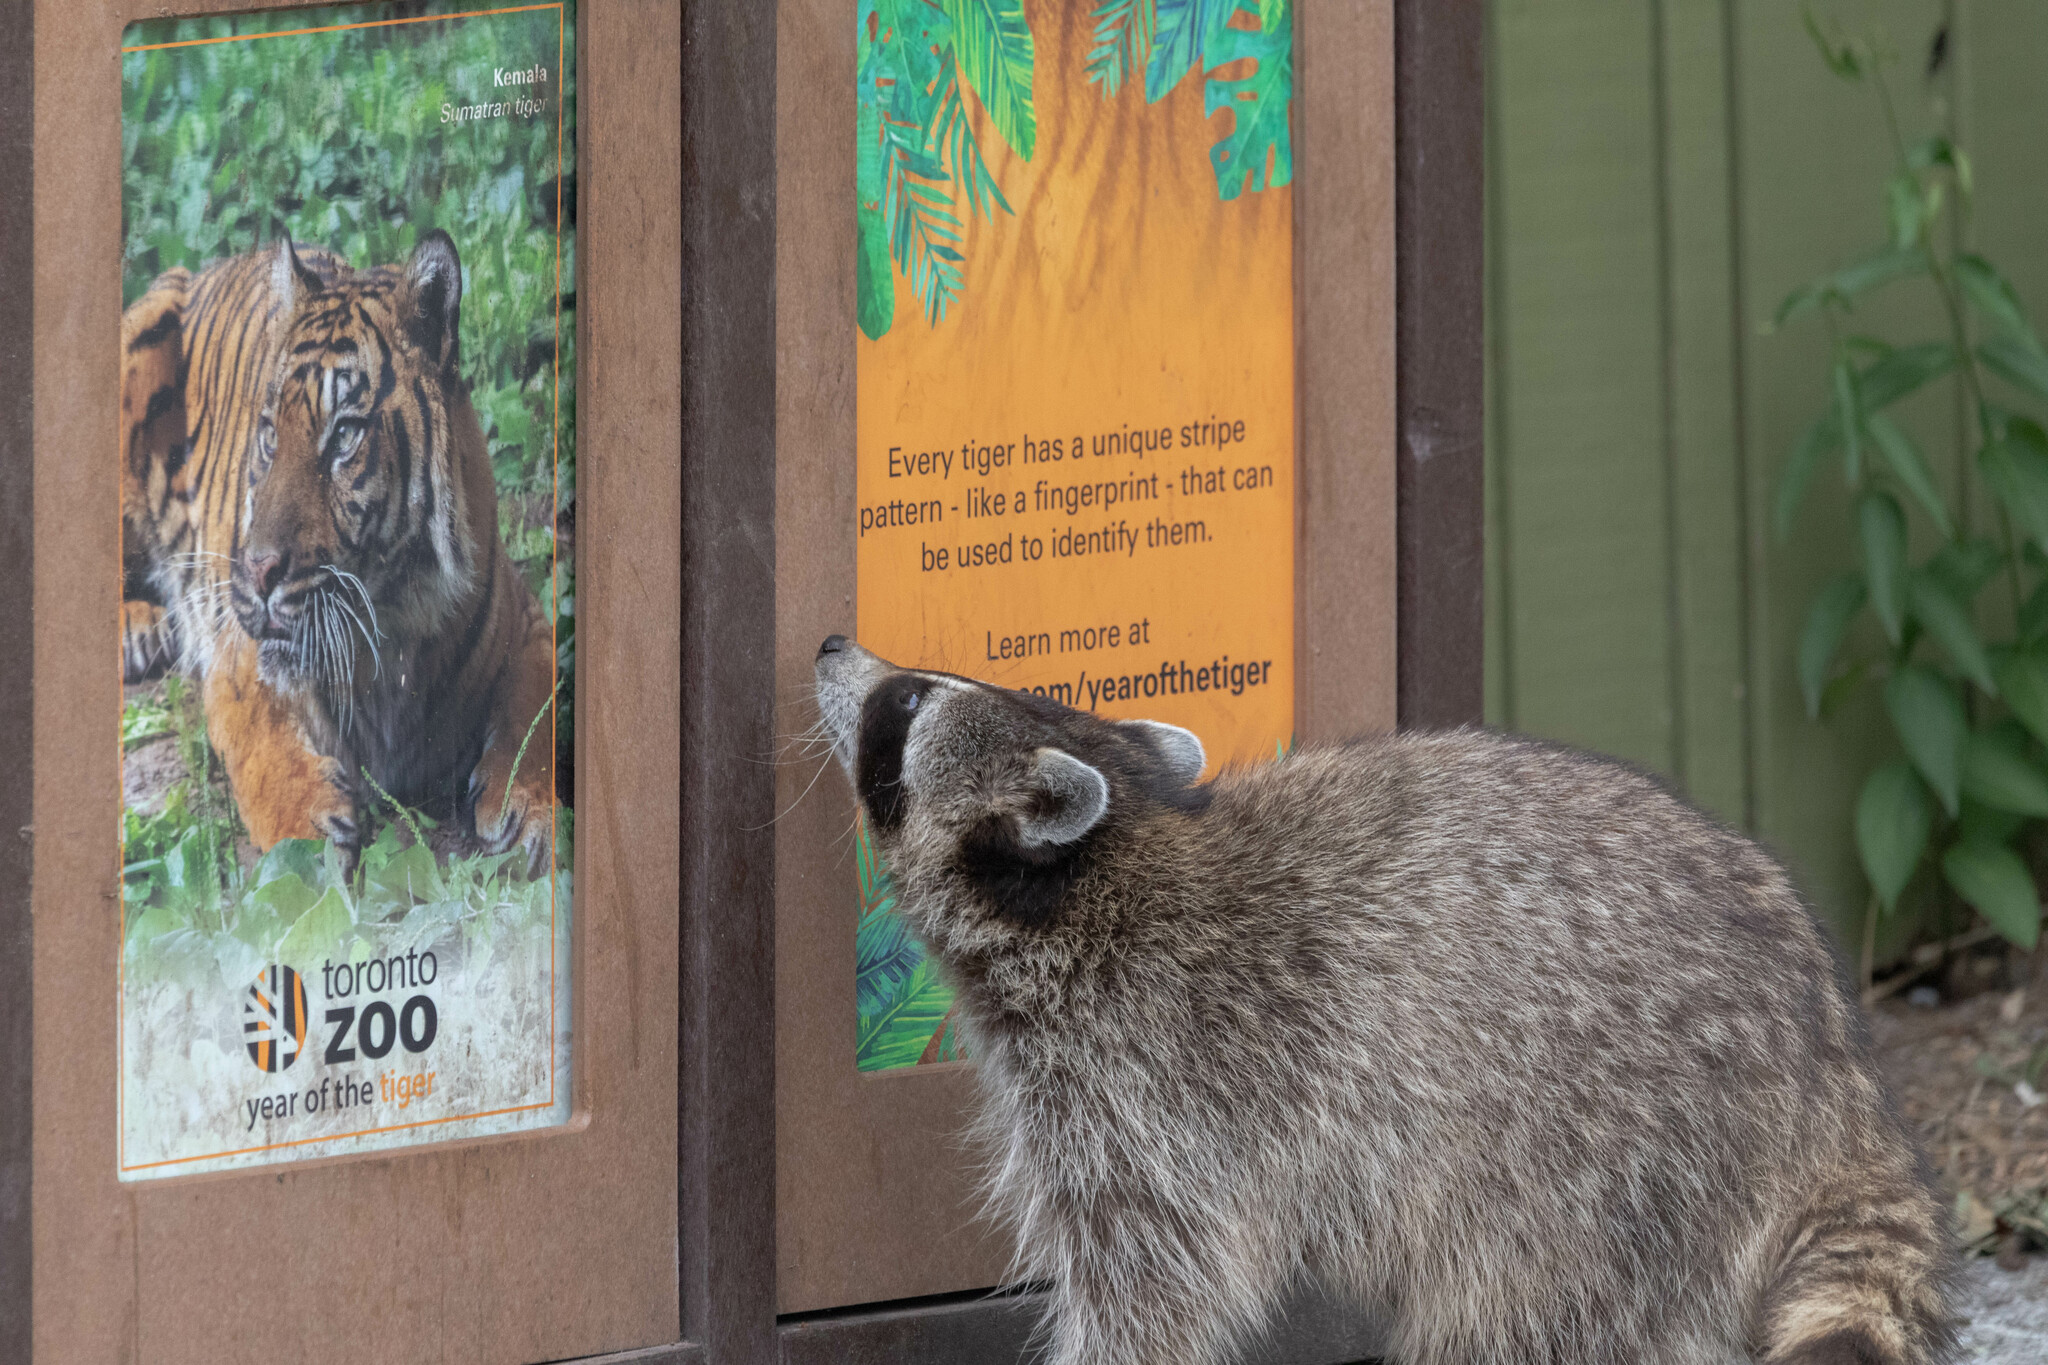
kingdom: Animalia
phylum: Chordata
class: Mammalia
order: Carnivora
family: Procyonidae
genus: Procyon
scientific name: Procyon lotor
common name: Raccoon
